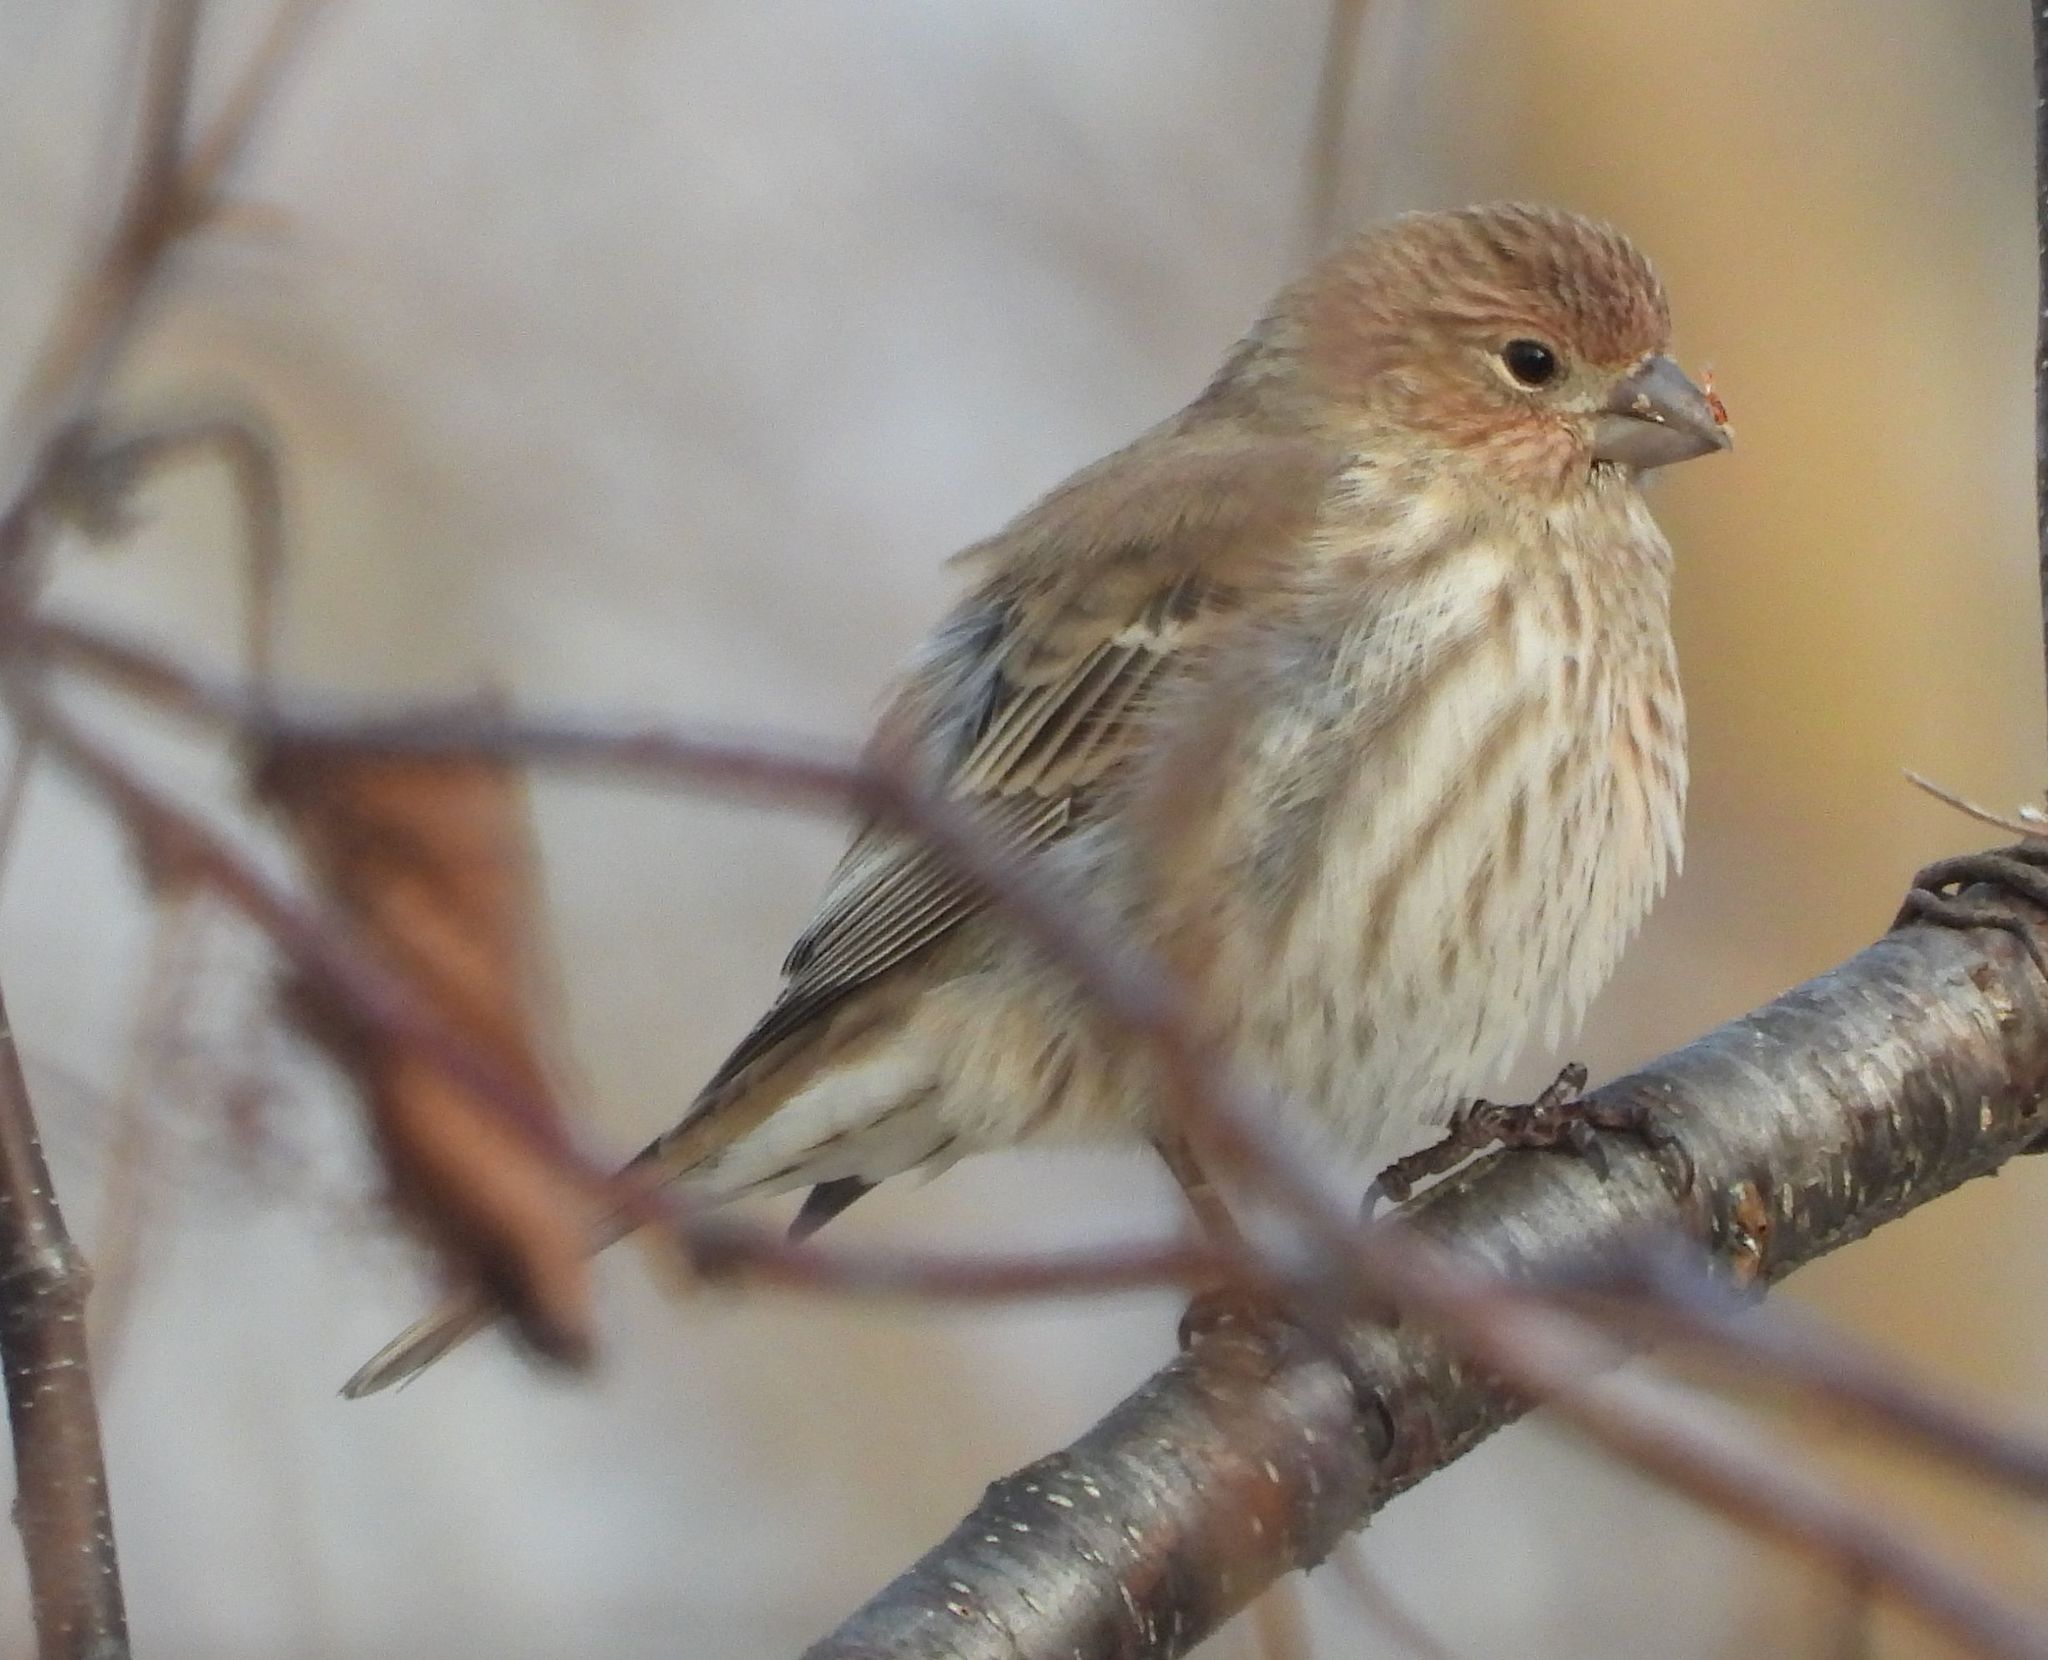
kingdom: Animalia
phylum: Chordata
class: Aves
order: Passeriformes
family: Fringillidae
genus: Haemorhous
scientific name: Haemorhous mexicanus
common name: House finch
